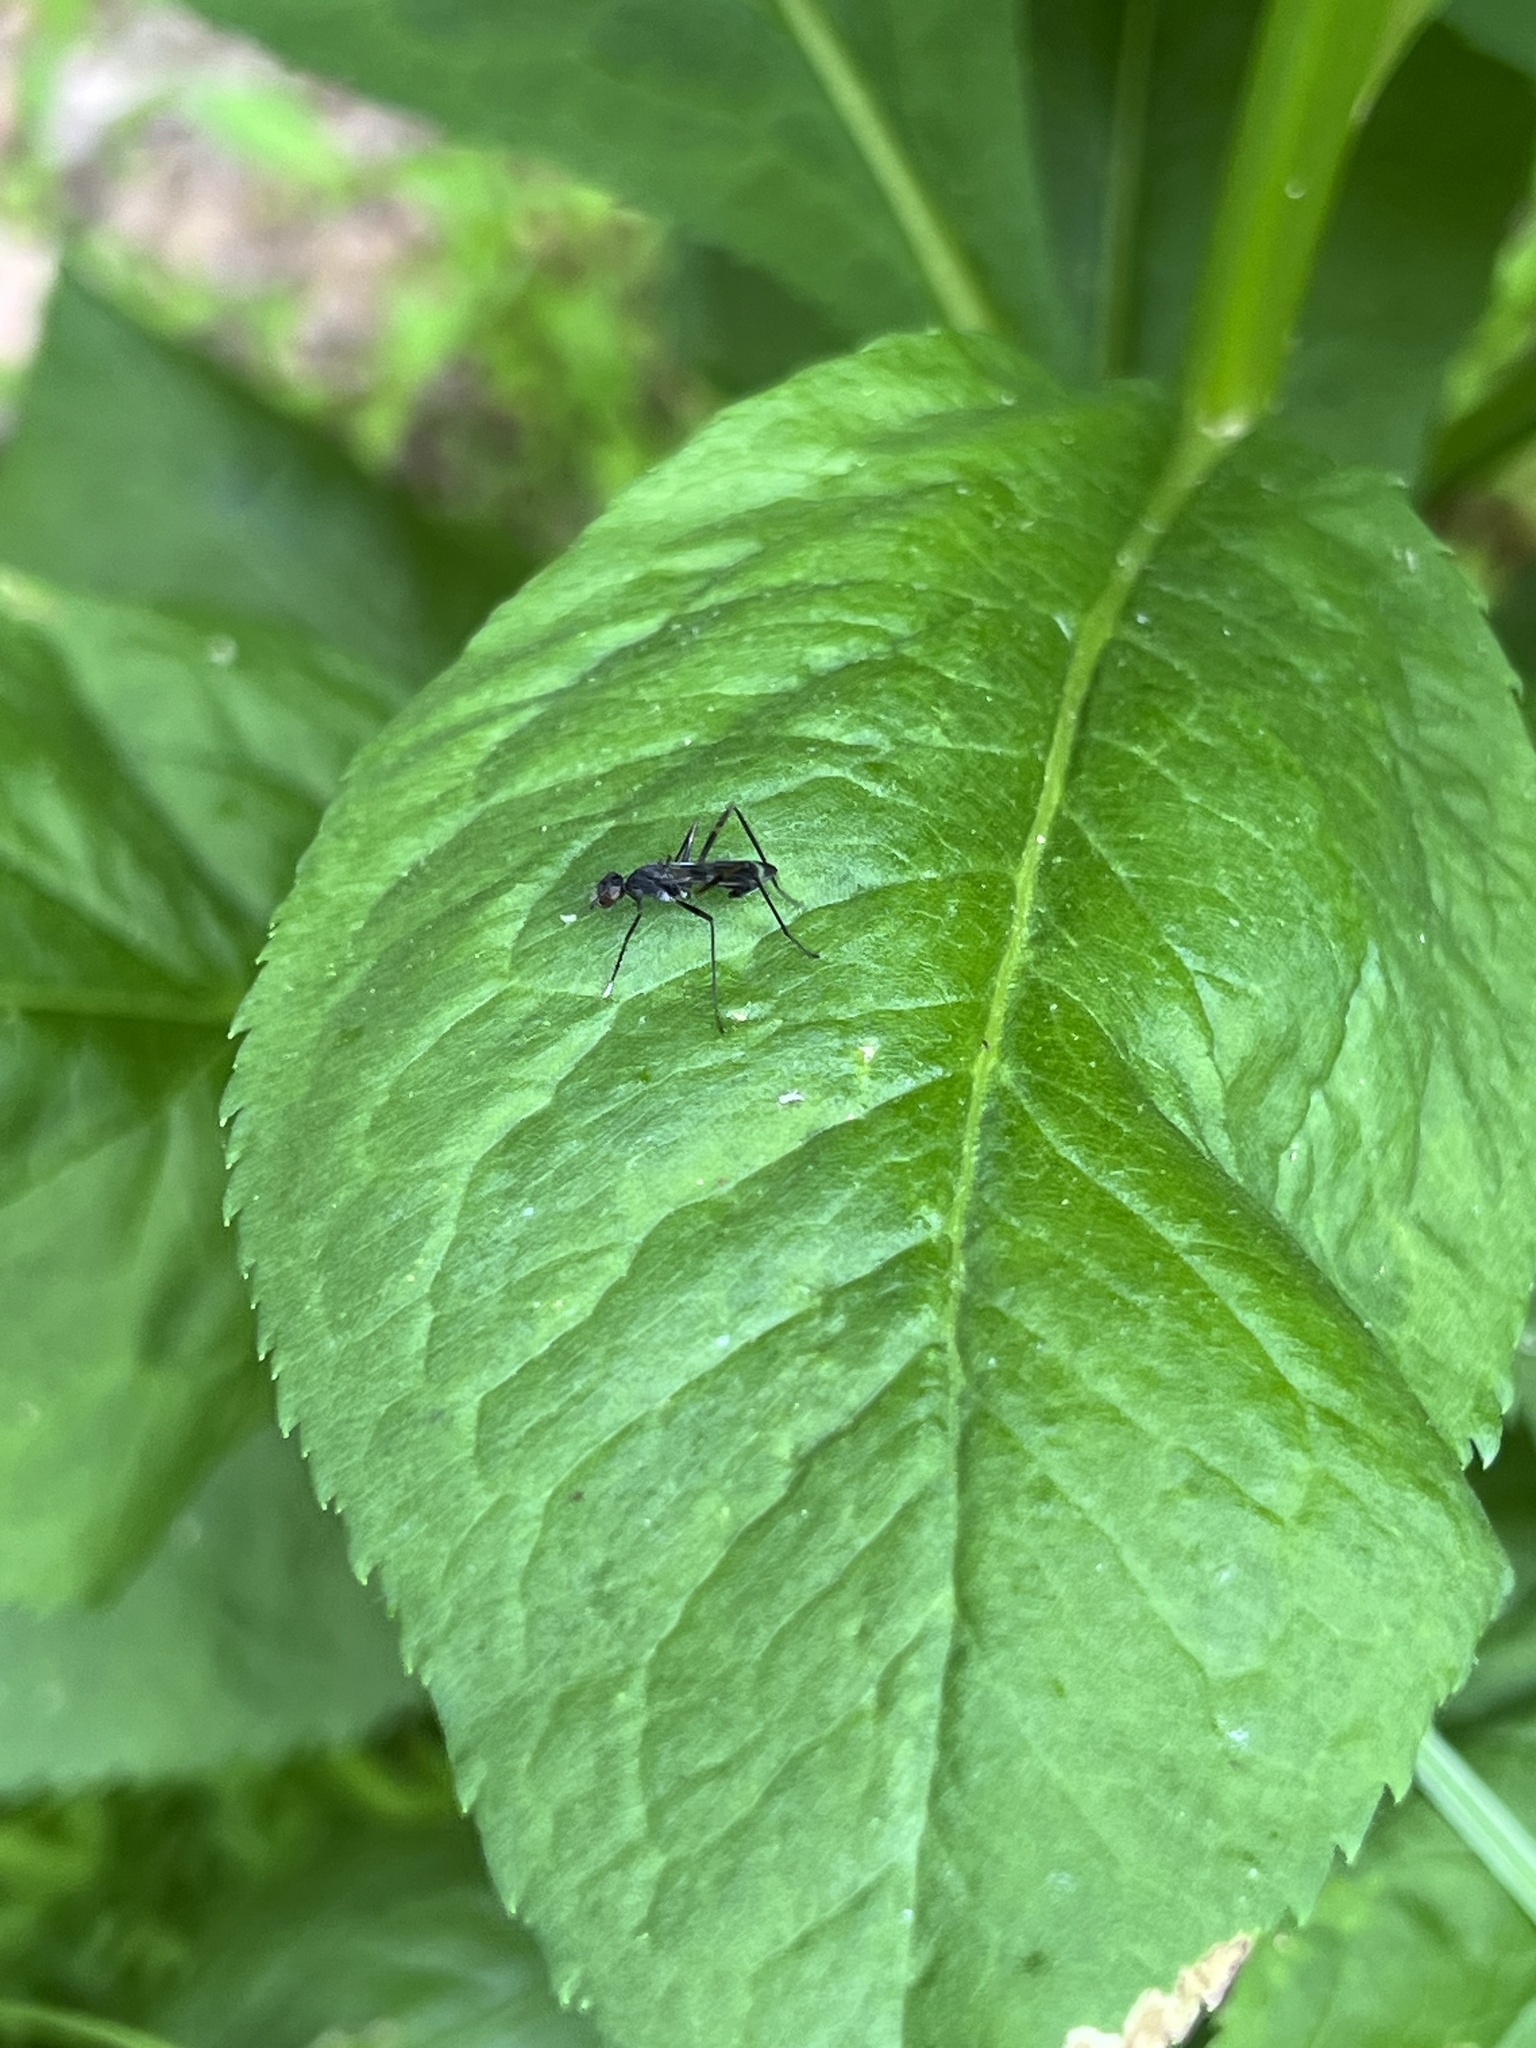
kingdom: Animalia
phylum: Arthropoda
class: Insecta
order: Diptera
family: Micropezidae
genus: Taeniaptera
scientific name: Taeniaptera trivittata
